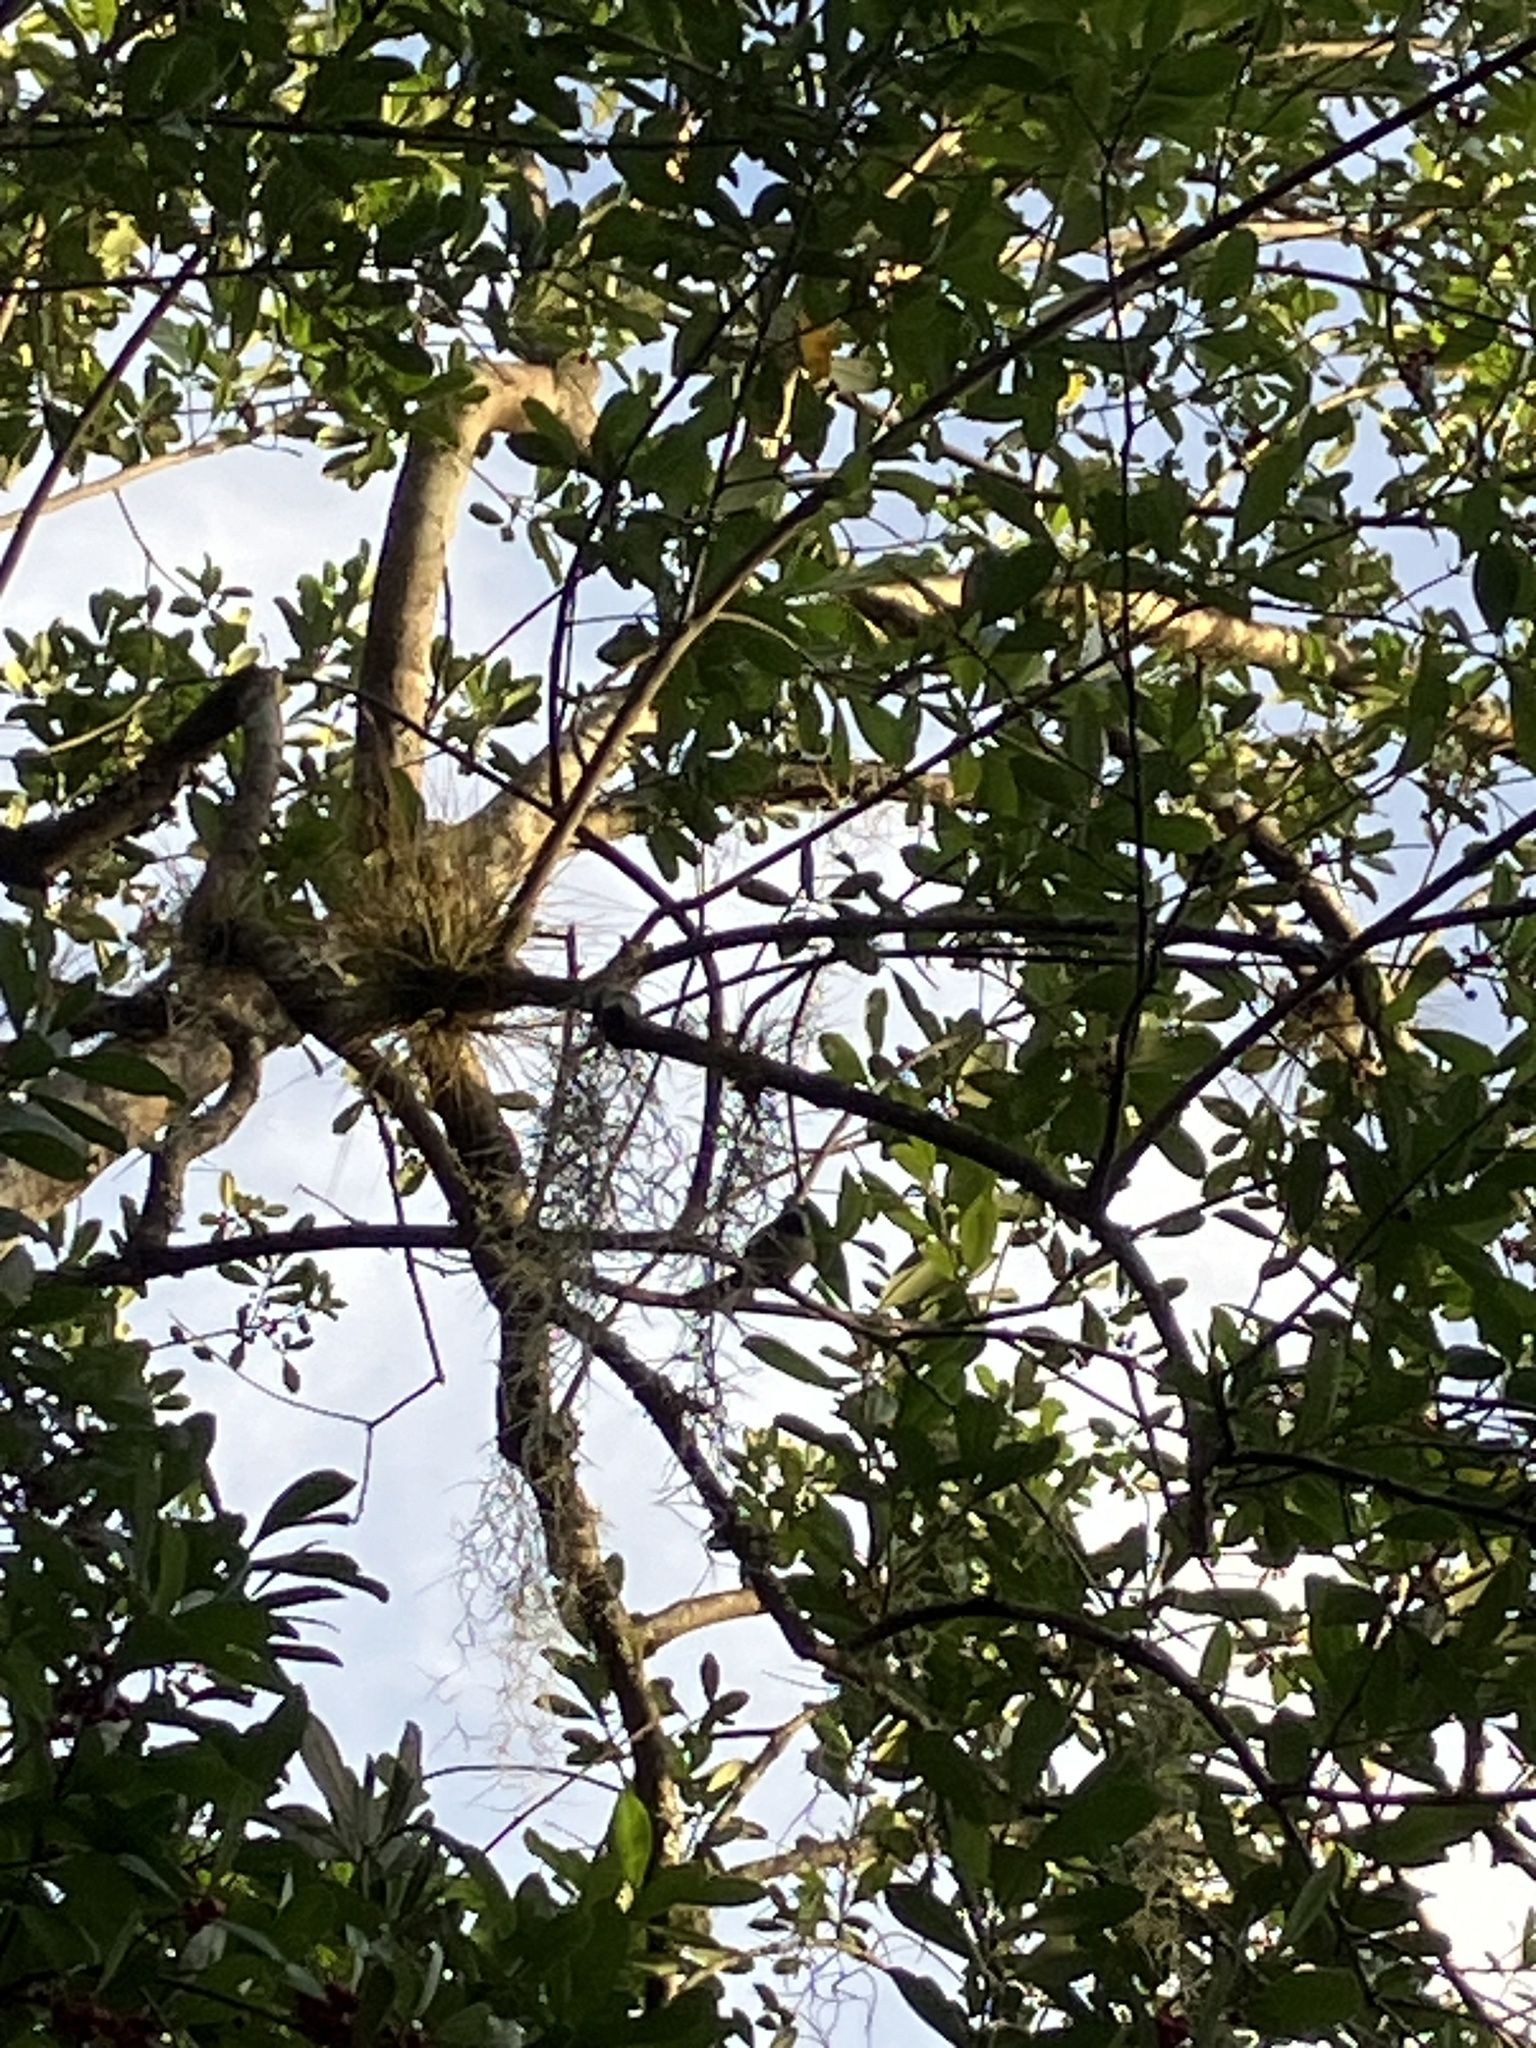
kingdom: Animalia
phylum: Chordata
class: Aves
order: Passeriformes
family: Paridae
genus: Poecile
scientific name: Poecile carolinensis
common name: Carolina chickadee
